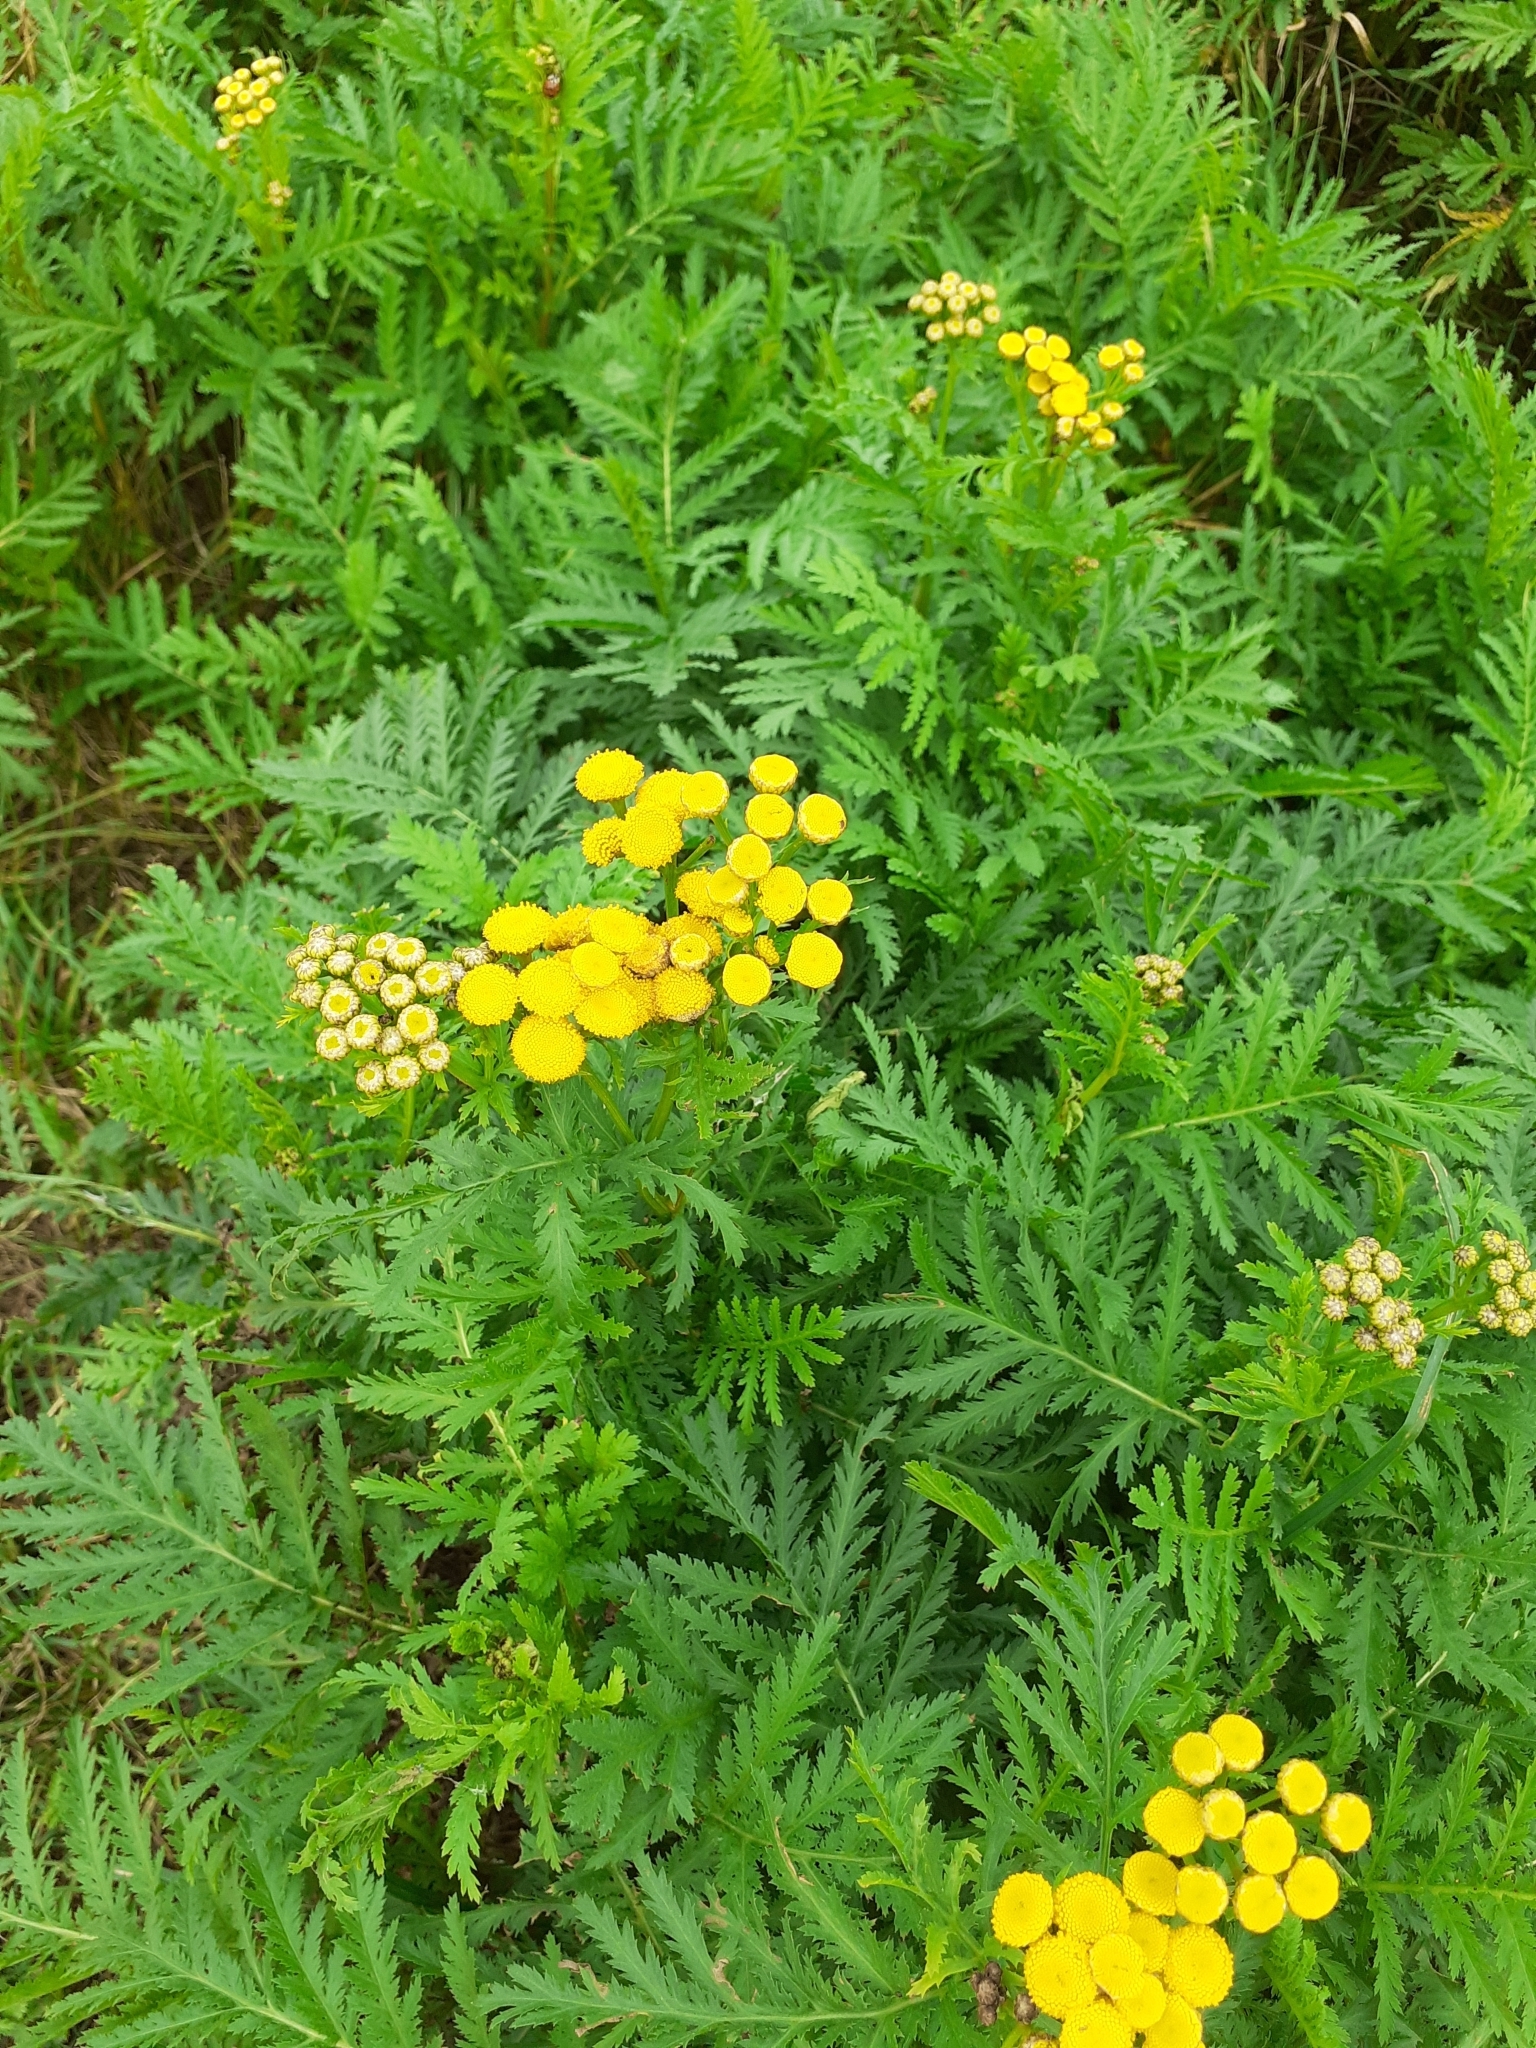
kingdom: Plantae
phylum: Tracheophyta
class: Magnoliopsida
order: Asterales
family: Asteraceae
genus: Tanacetum
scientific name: Tanacetum vulgare
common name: Common tansy
